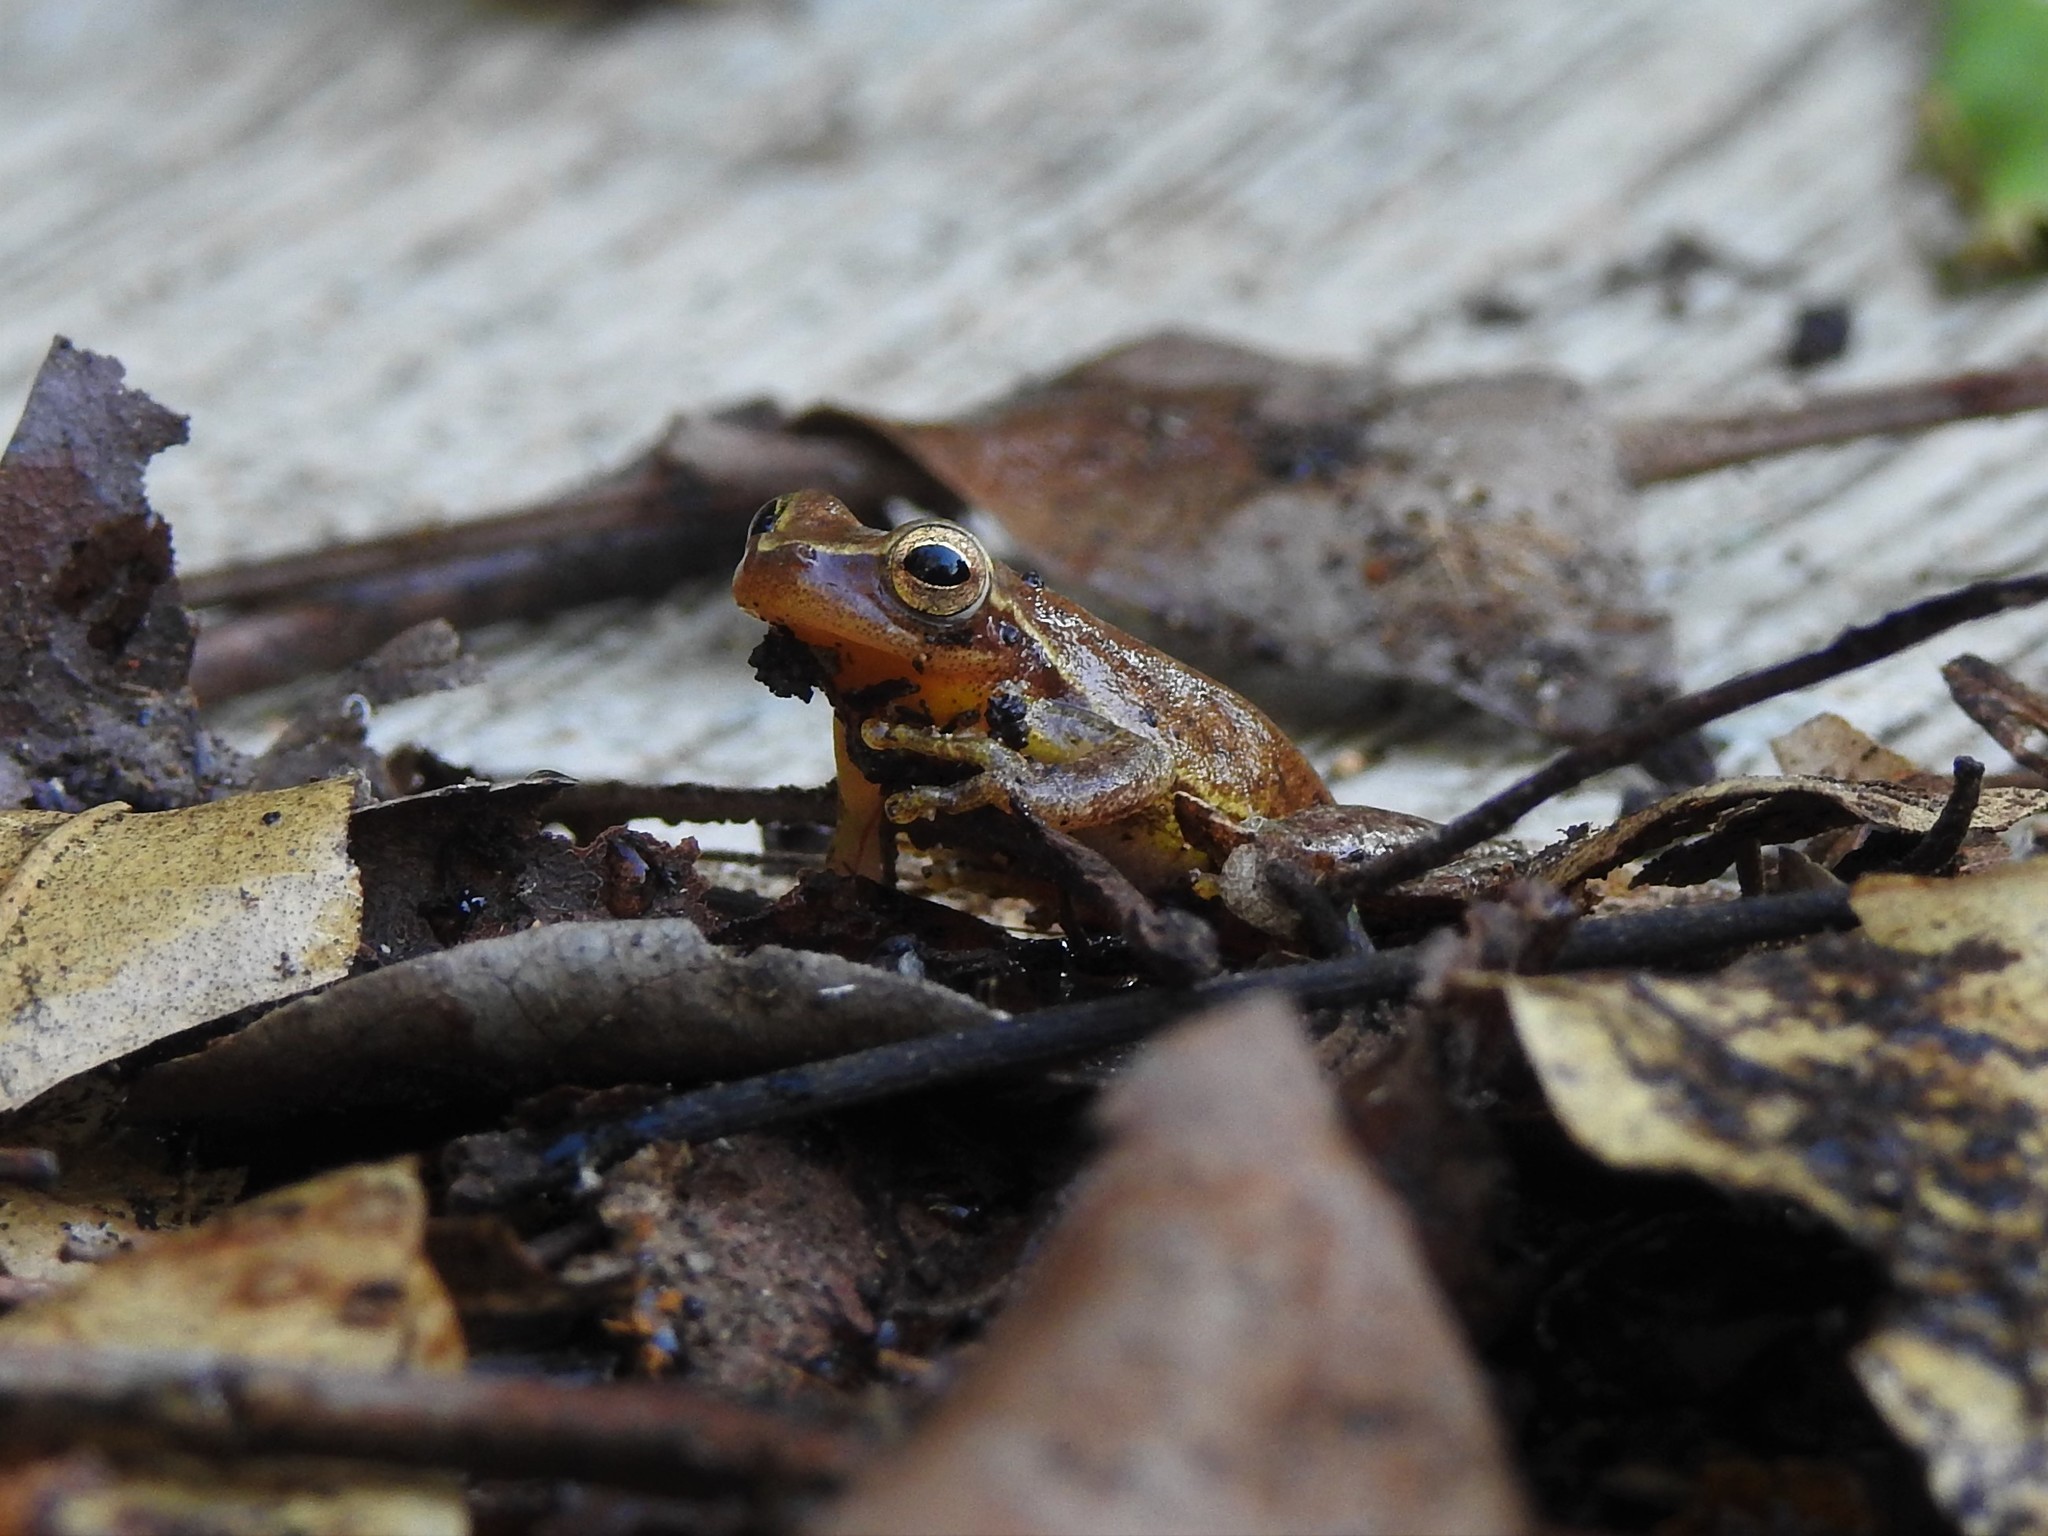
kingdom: Animalia
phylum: Chordata
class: Amphibia
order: Anura
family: Hylidae
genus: Tlalocohyla
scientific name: Tlalocohyla smithii
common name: Dwarf mexican treefrog
